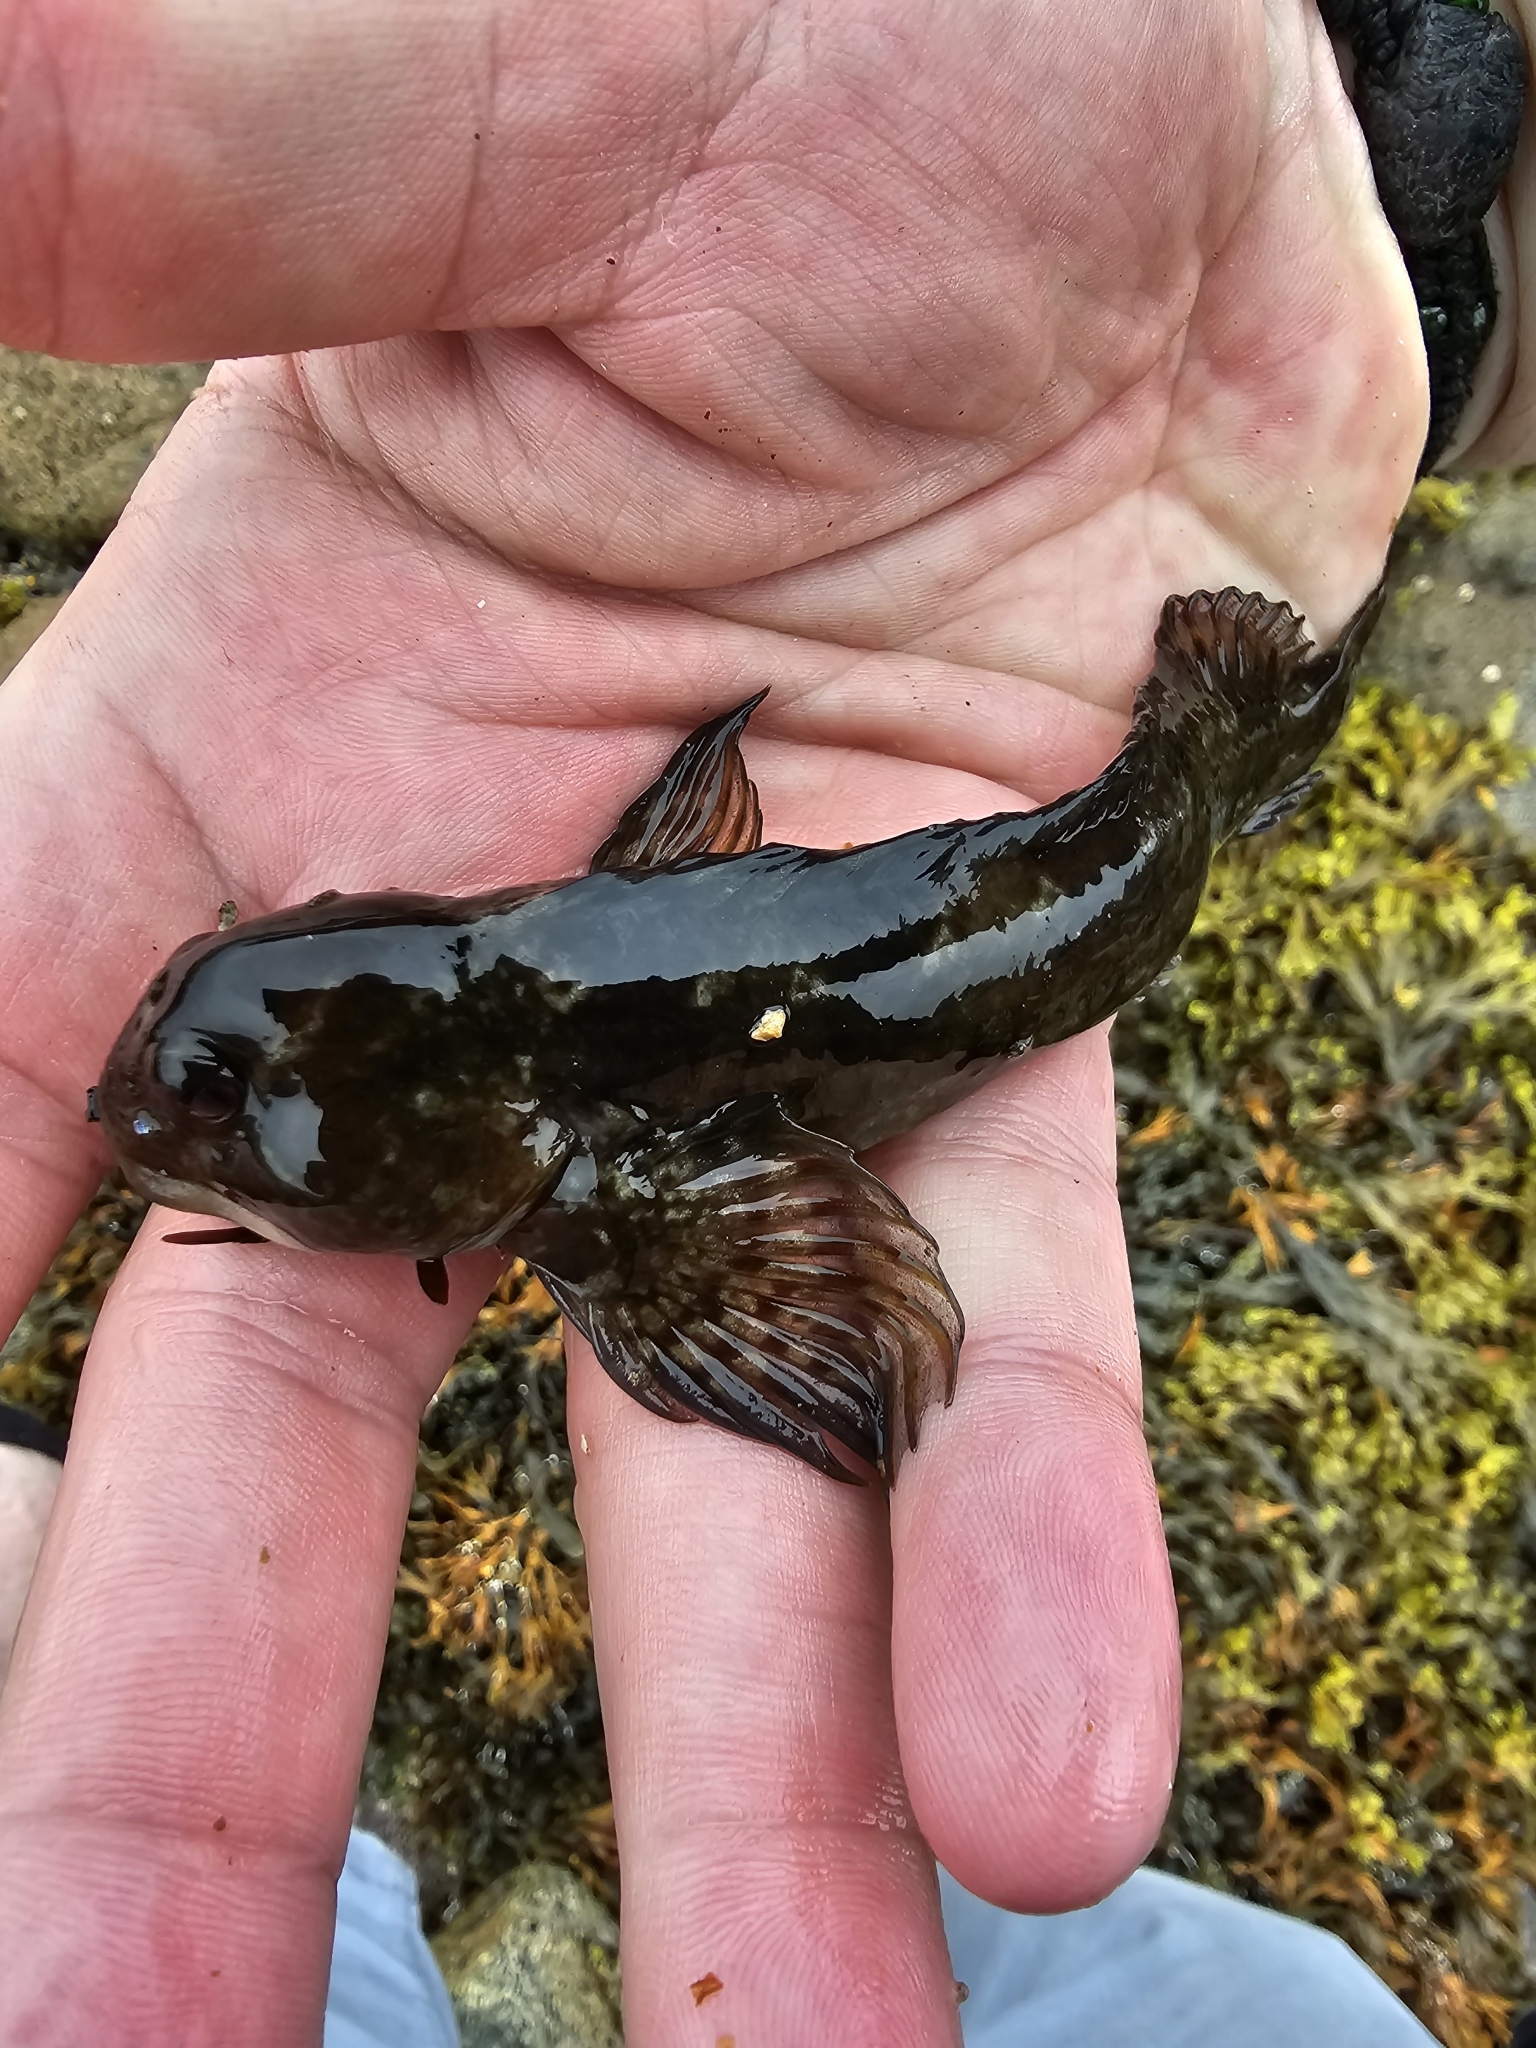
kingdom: Animalia
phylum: Chordata
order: Perciformes
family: Blenniidae
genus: Lipophrys
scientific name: Lipophrys pholis
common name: Shanny
